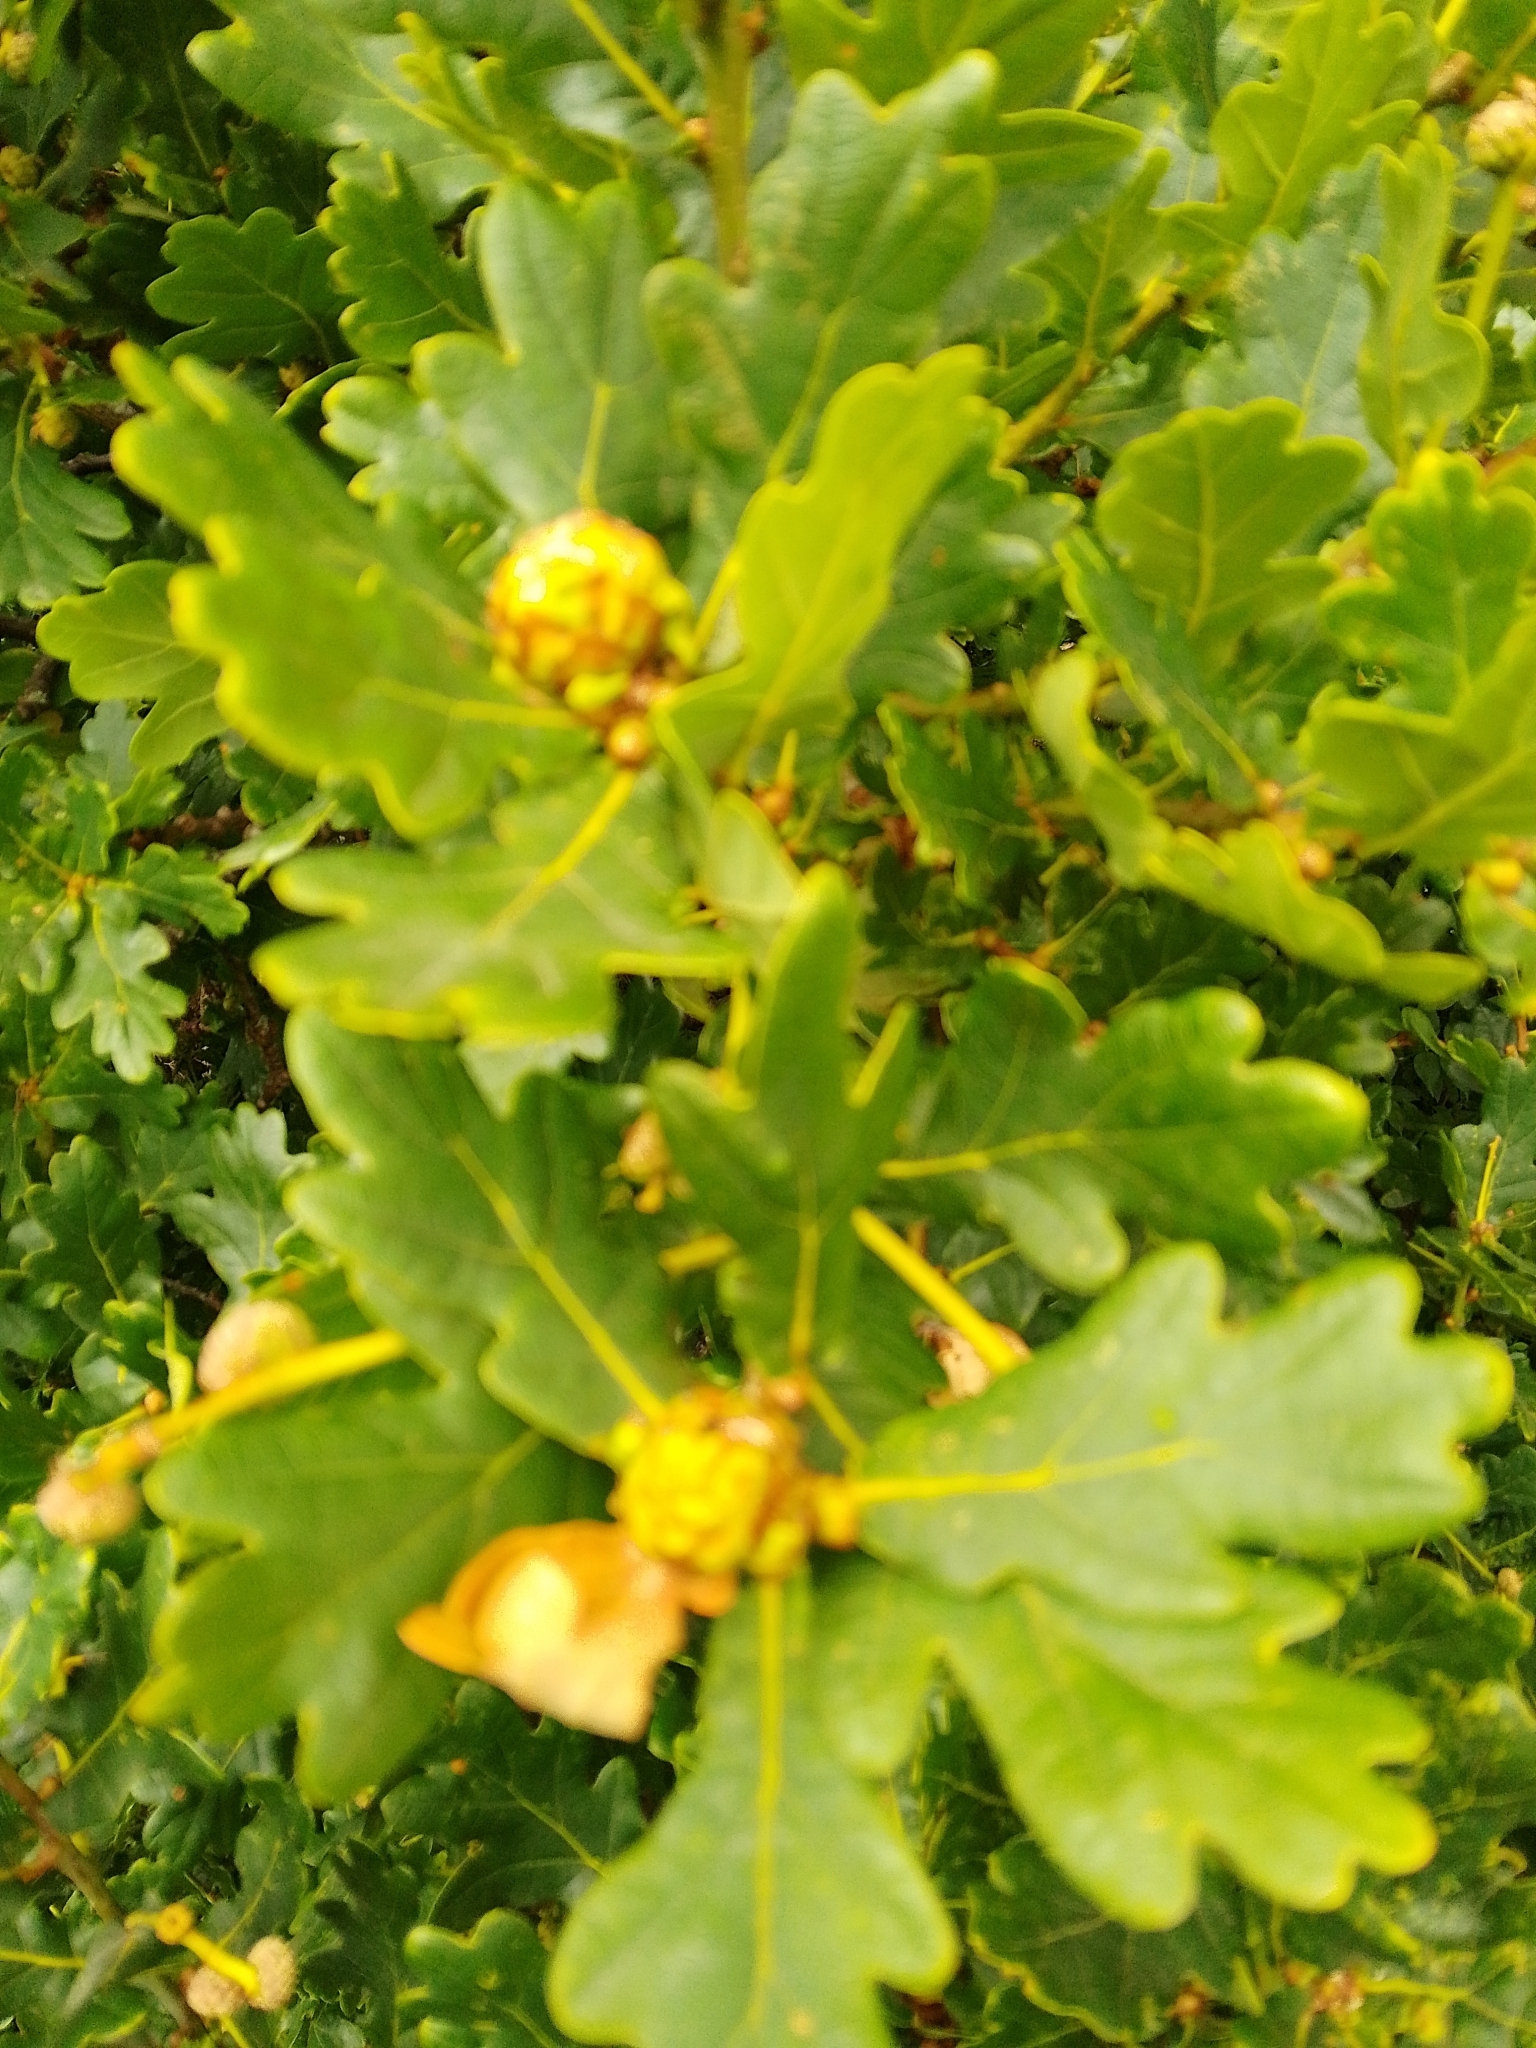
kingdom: Animalia
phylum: Arthropoda
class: Insecta
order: Hymenoptera
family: Cynipidae
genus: Andricus
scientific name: Andricus foecundatrix
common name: Artichoke gall
